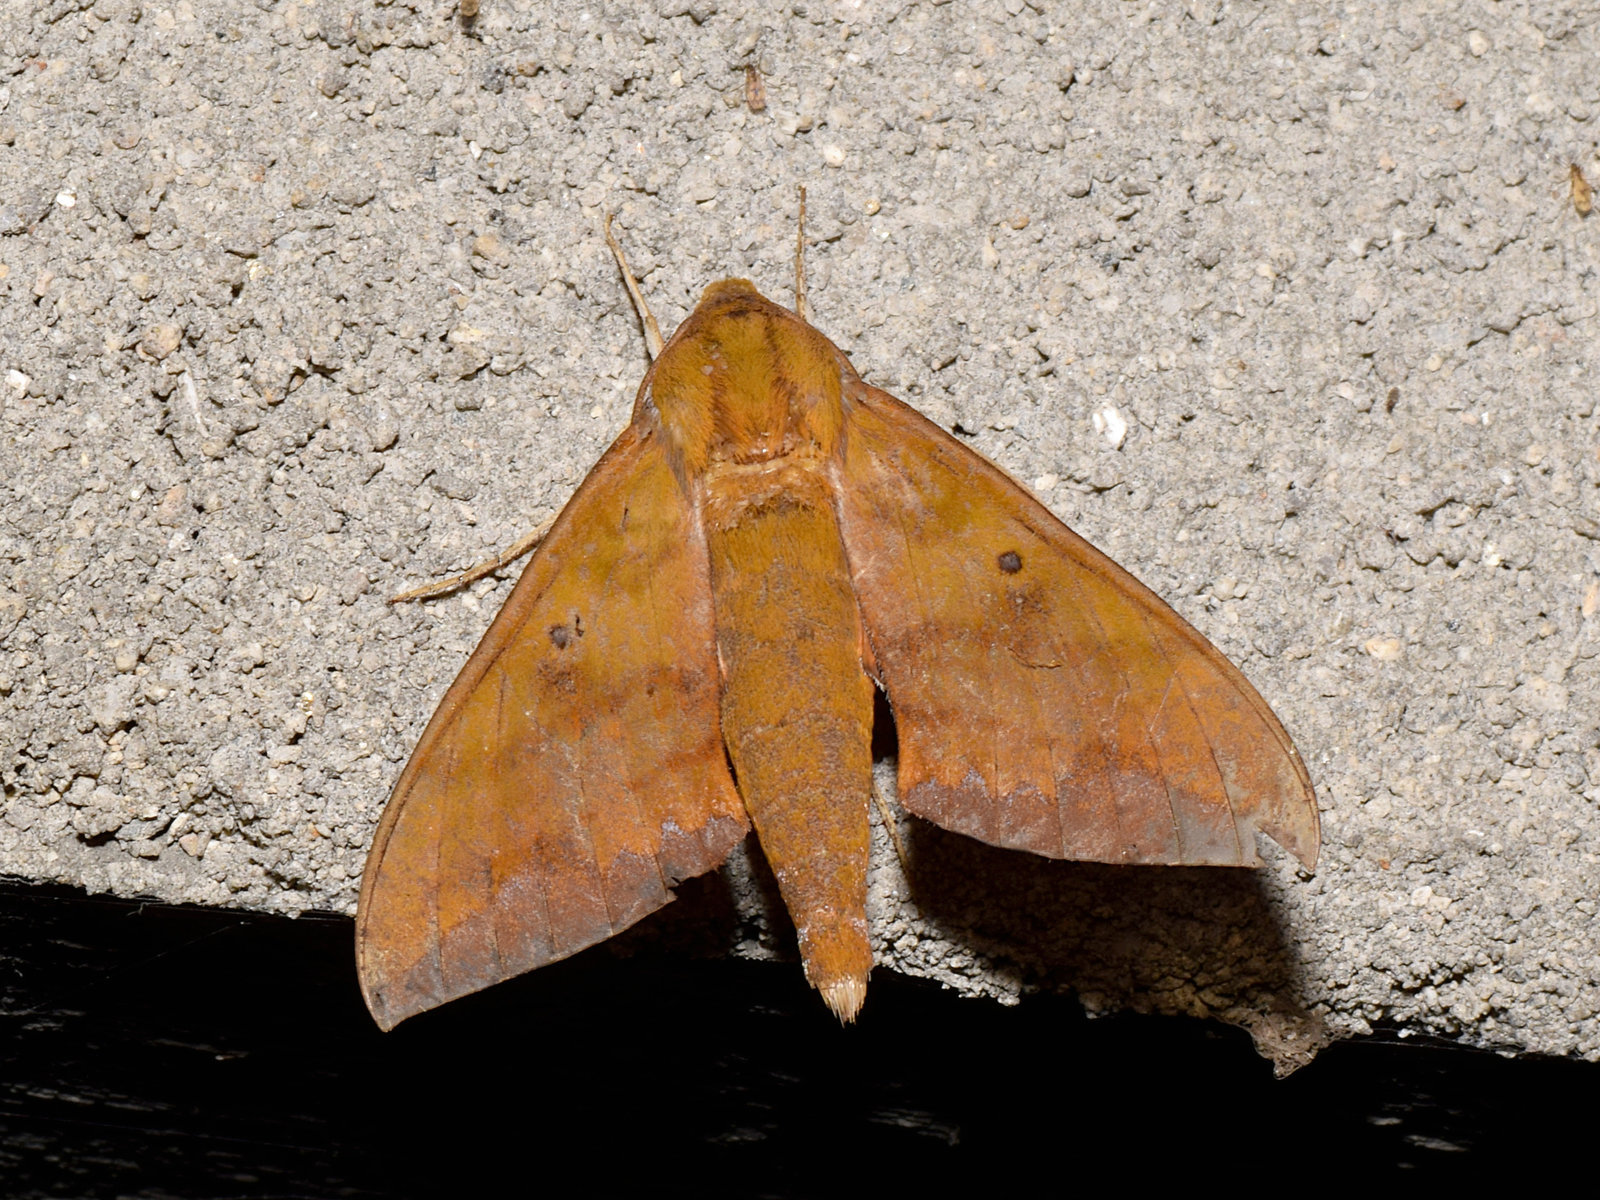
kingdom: Animalia
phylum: Arthropoda
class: Insecta
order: Lepidoptera
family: Sphingidae
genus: Rhagastis
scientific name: Rhagastis olivacea
